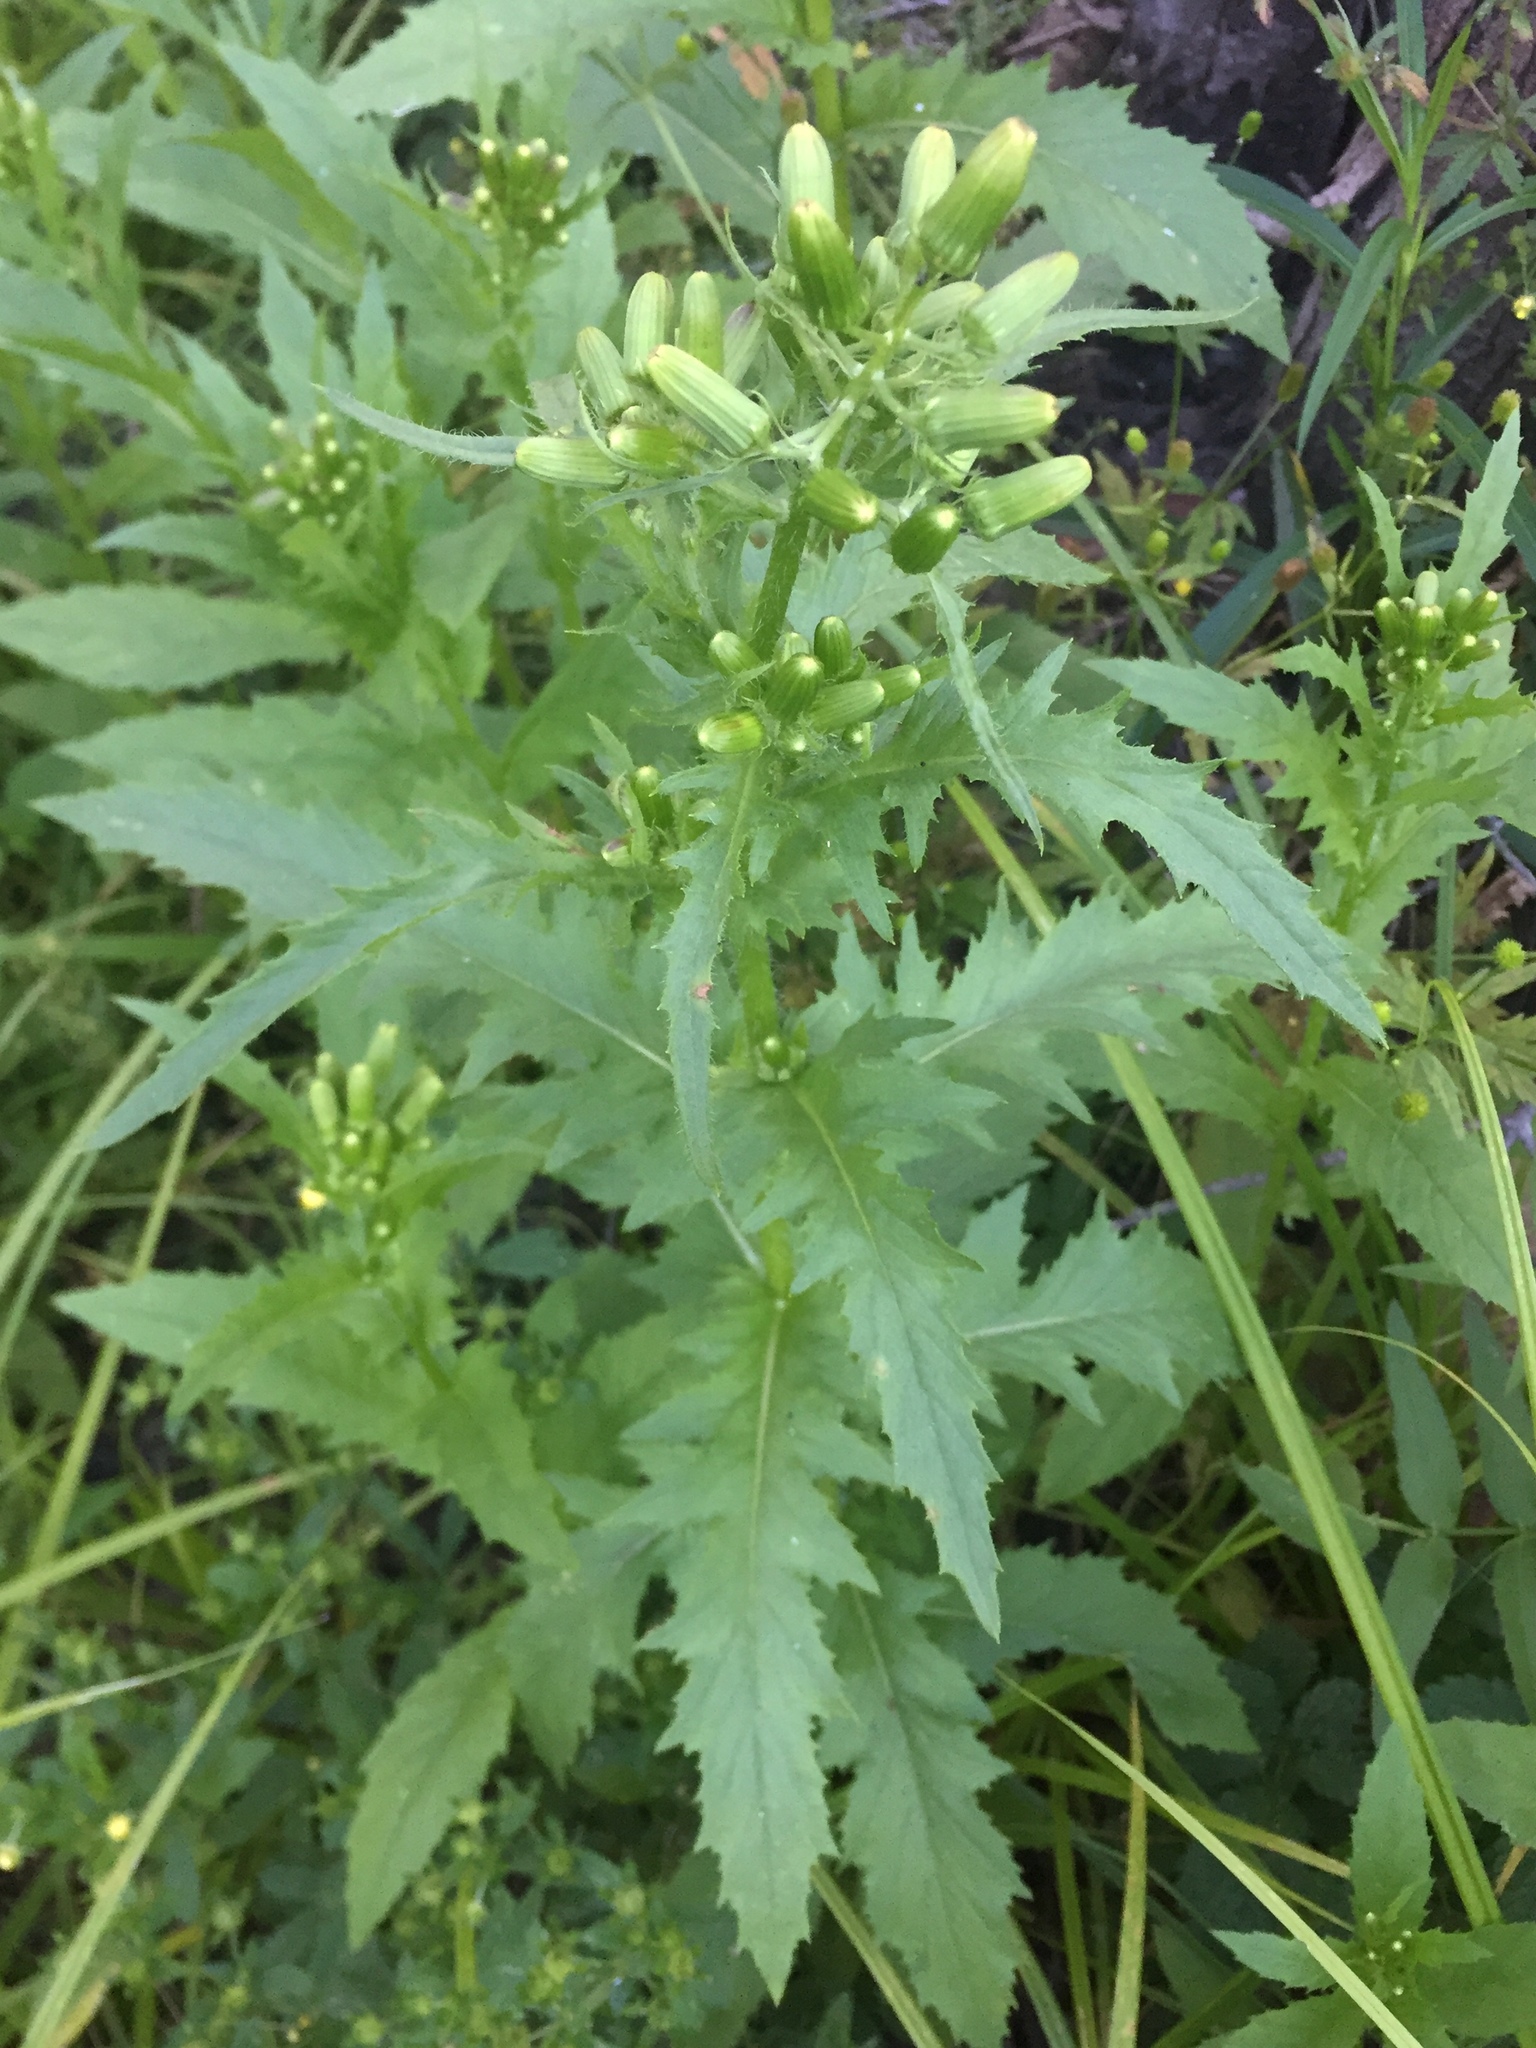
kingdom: Plantae
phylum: Tracheophyta
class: Magnoliopsida
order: Asterales
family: Asteraceae
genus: Erechtites
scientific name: Erechtites hieraciifolius
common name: American burnweed
